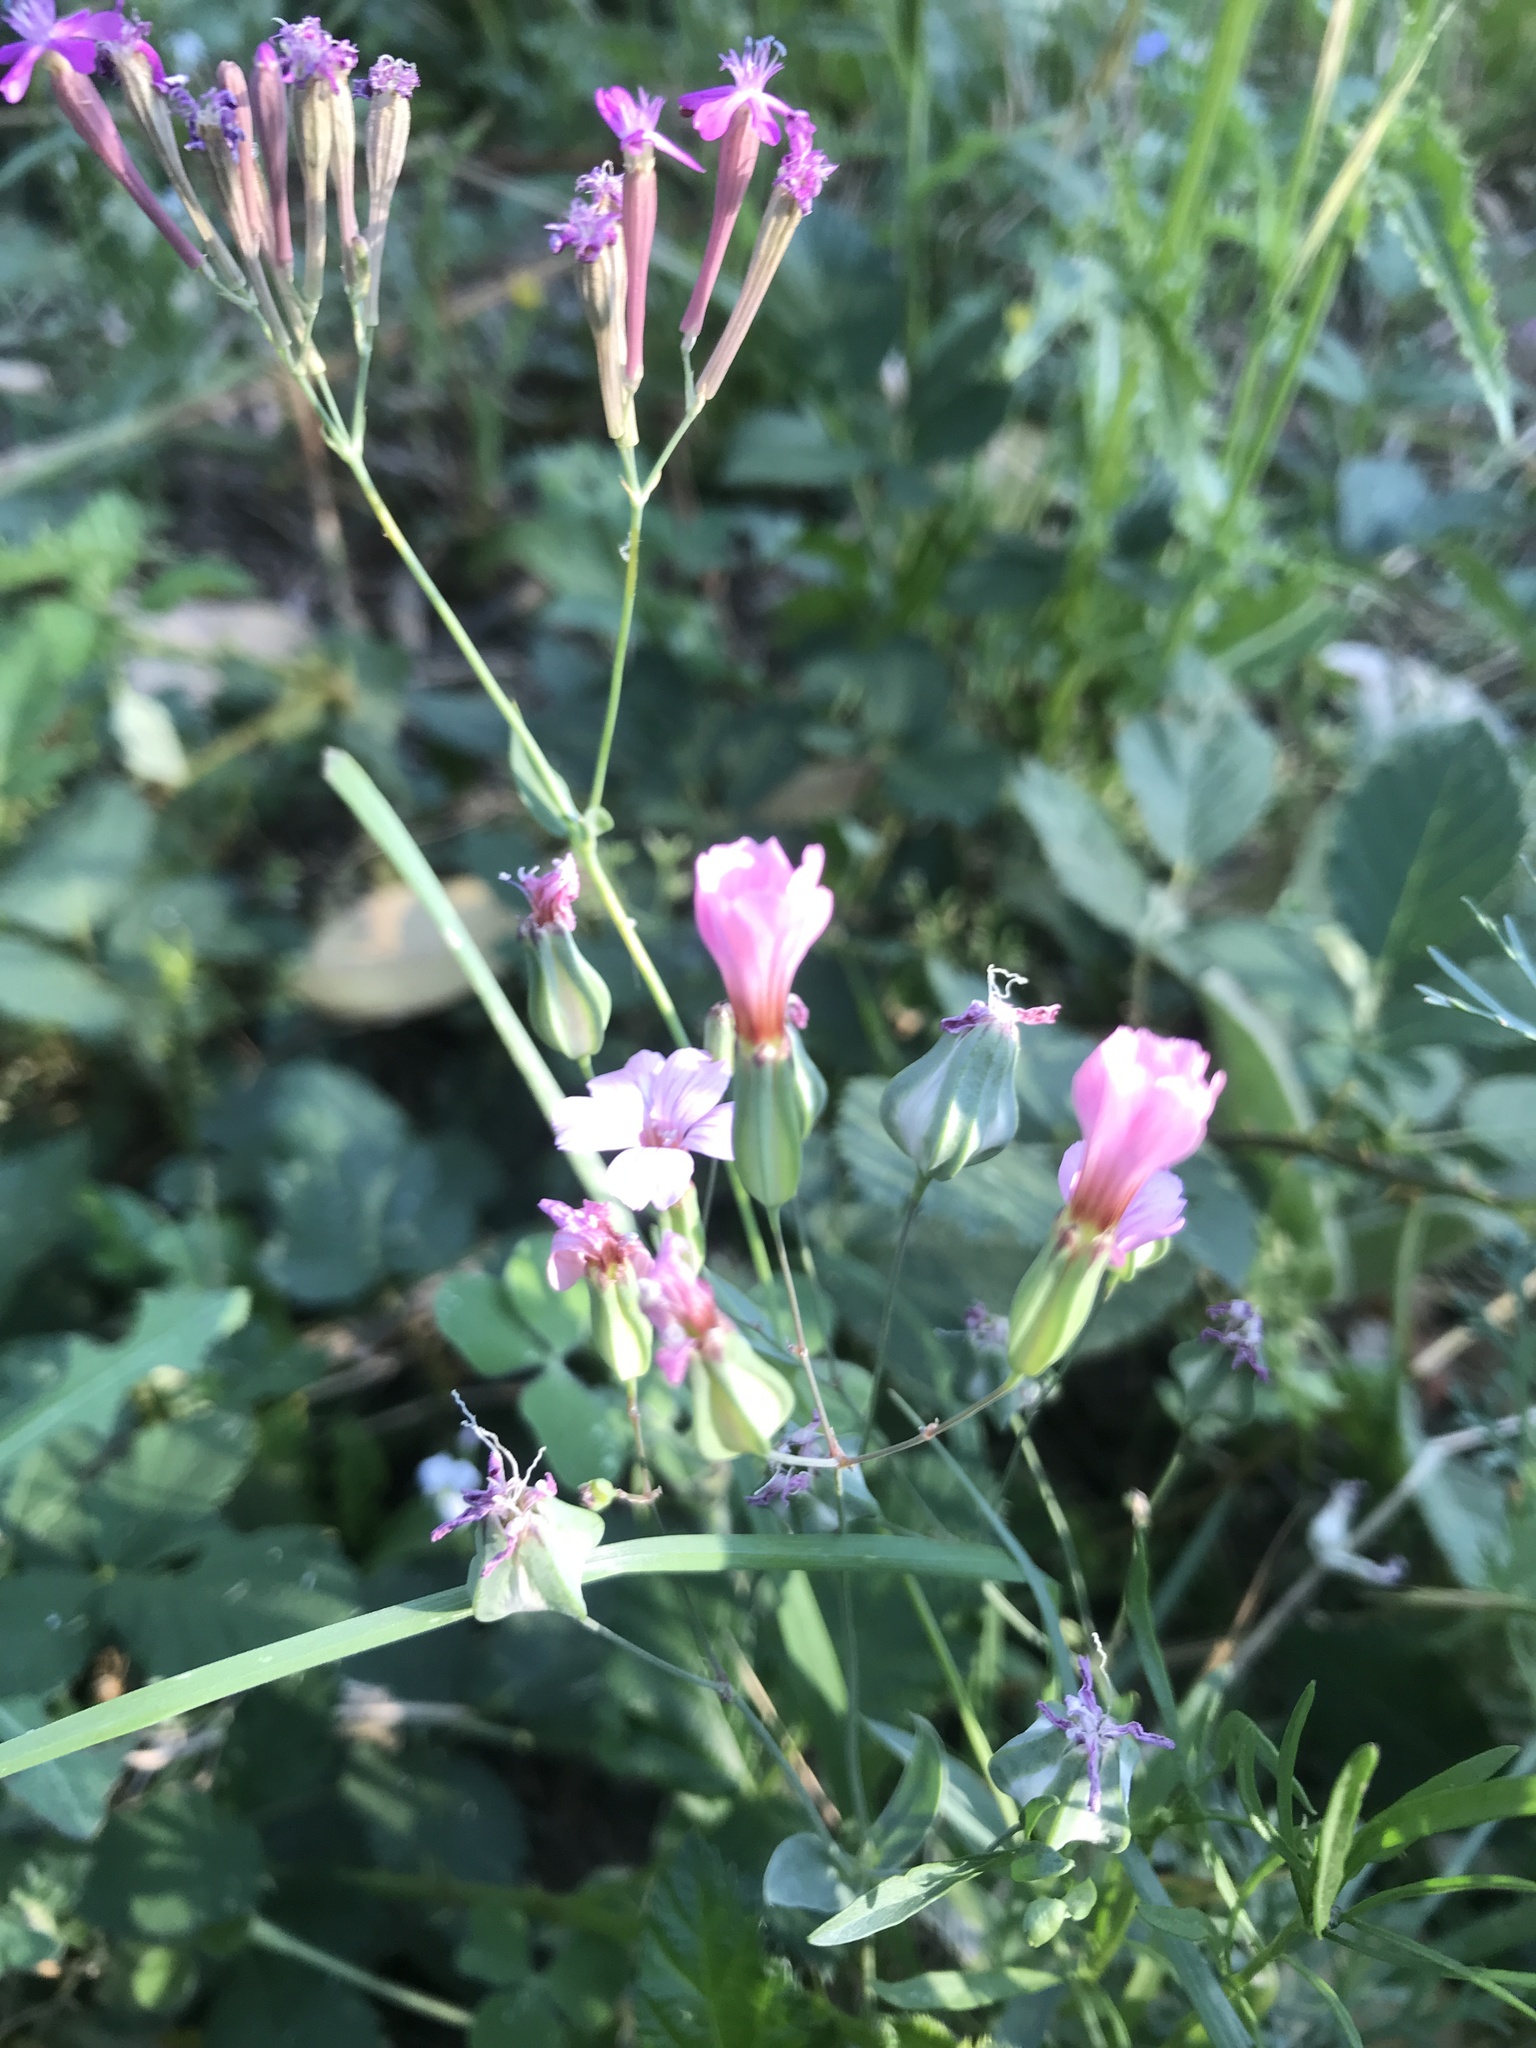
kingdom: Plantae
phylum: Tracheophyta
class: Magnoliopsida
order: Caryophyllales
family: Caryophyllaceae
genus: Atocion
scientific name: Atocion armeria
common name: Sweet william catchfly
